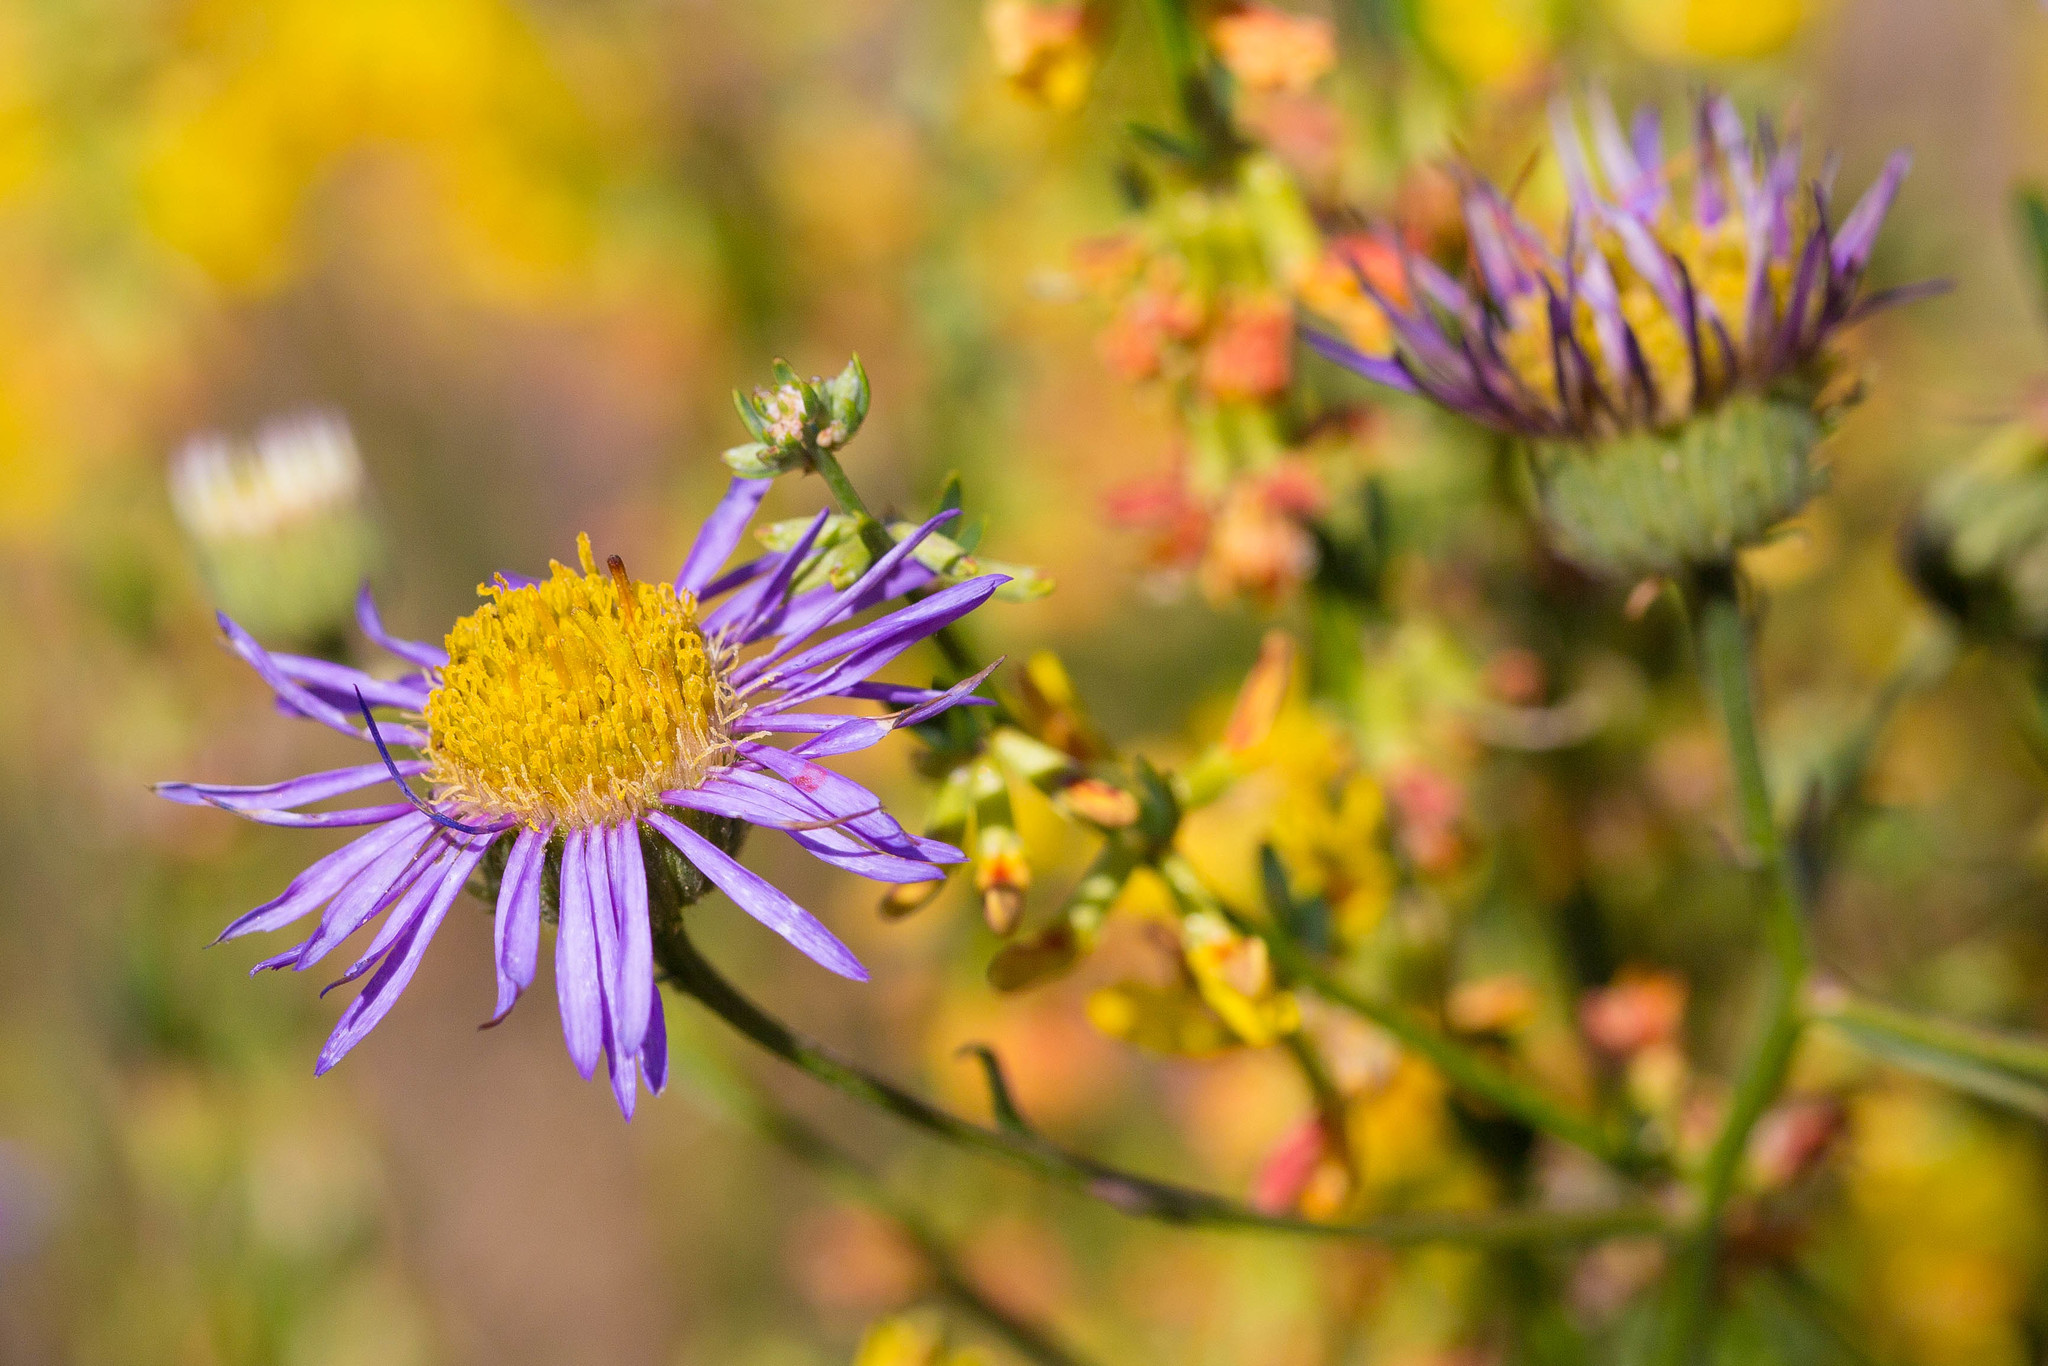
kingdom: Plantae
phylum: Tracheophyta
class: Magnoliopsida
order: Asterales
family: Asteraceae
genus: Erigeron
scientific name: Erigeron foliosus
